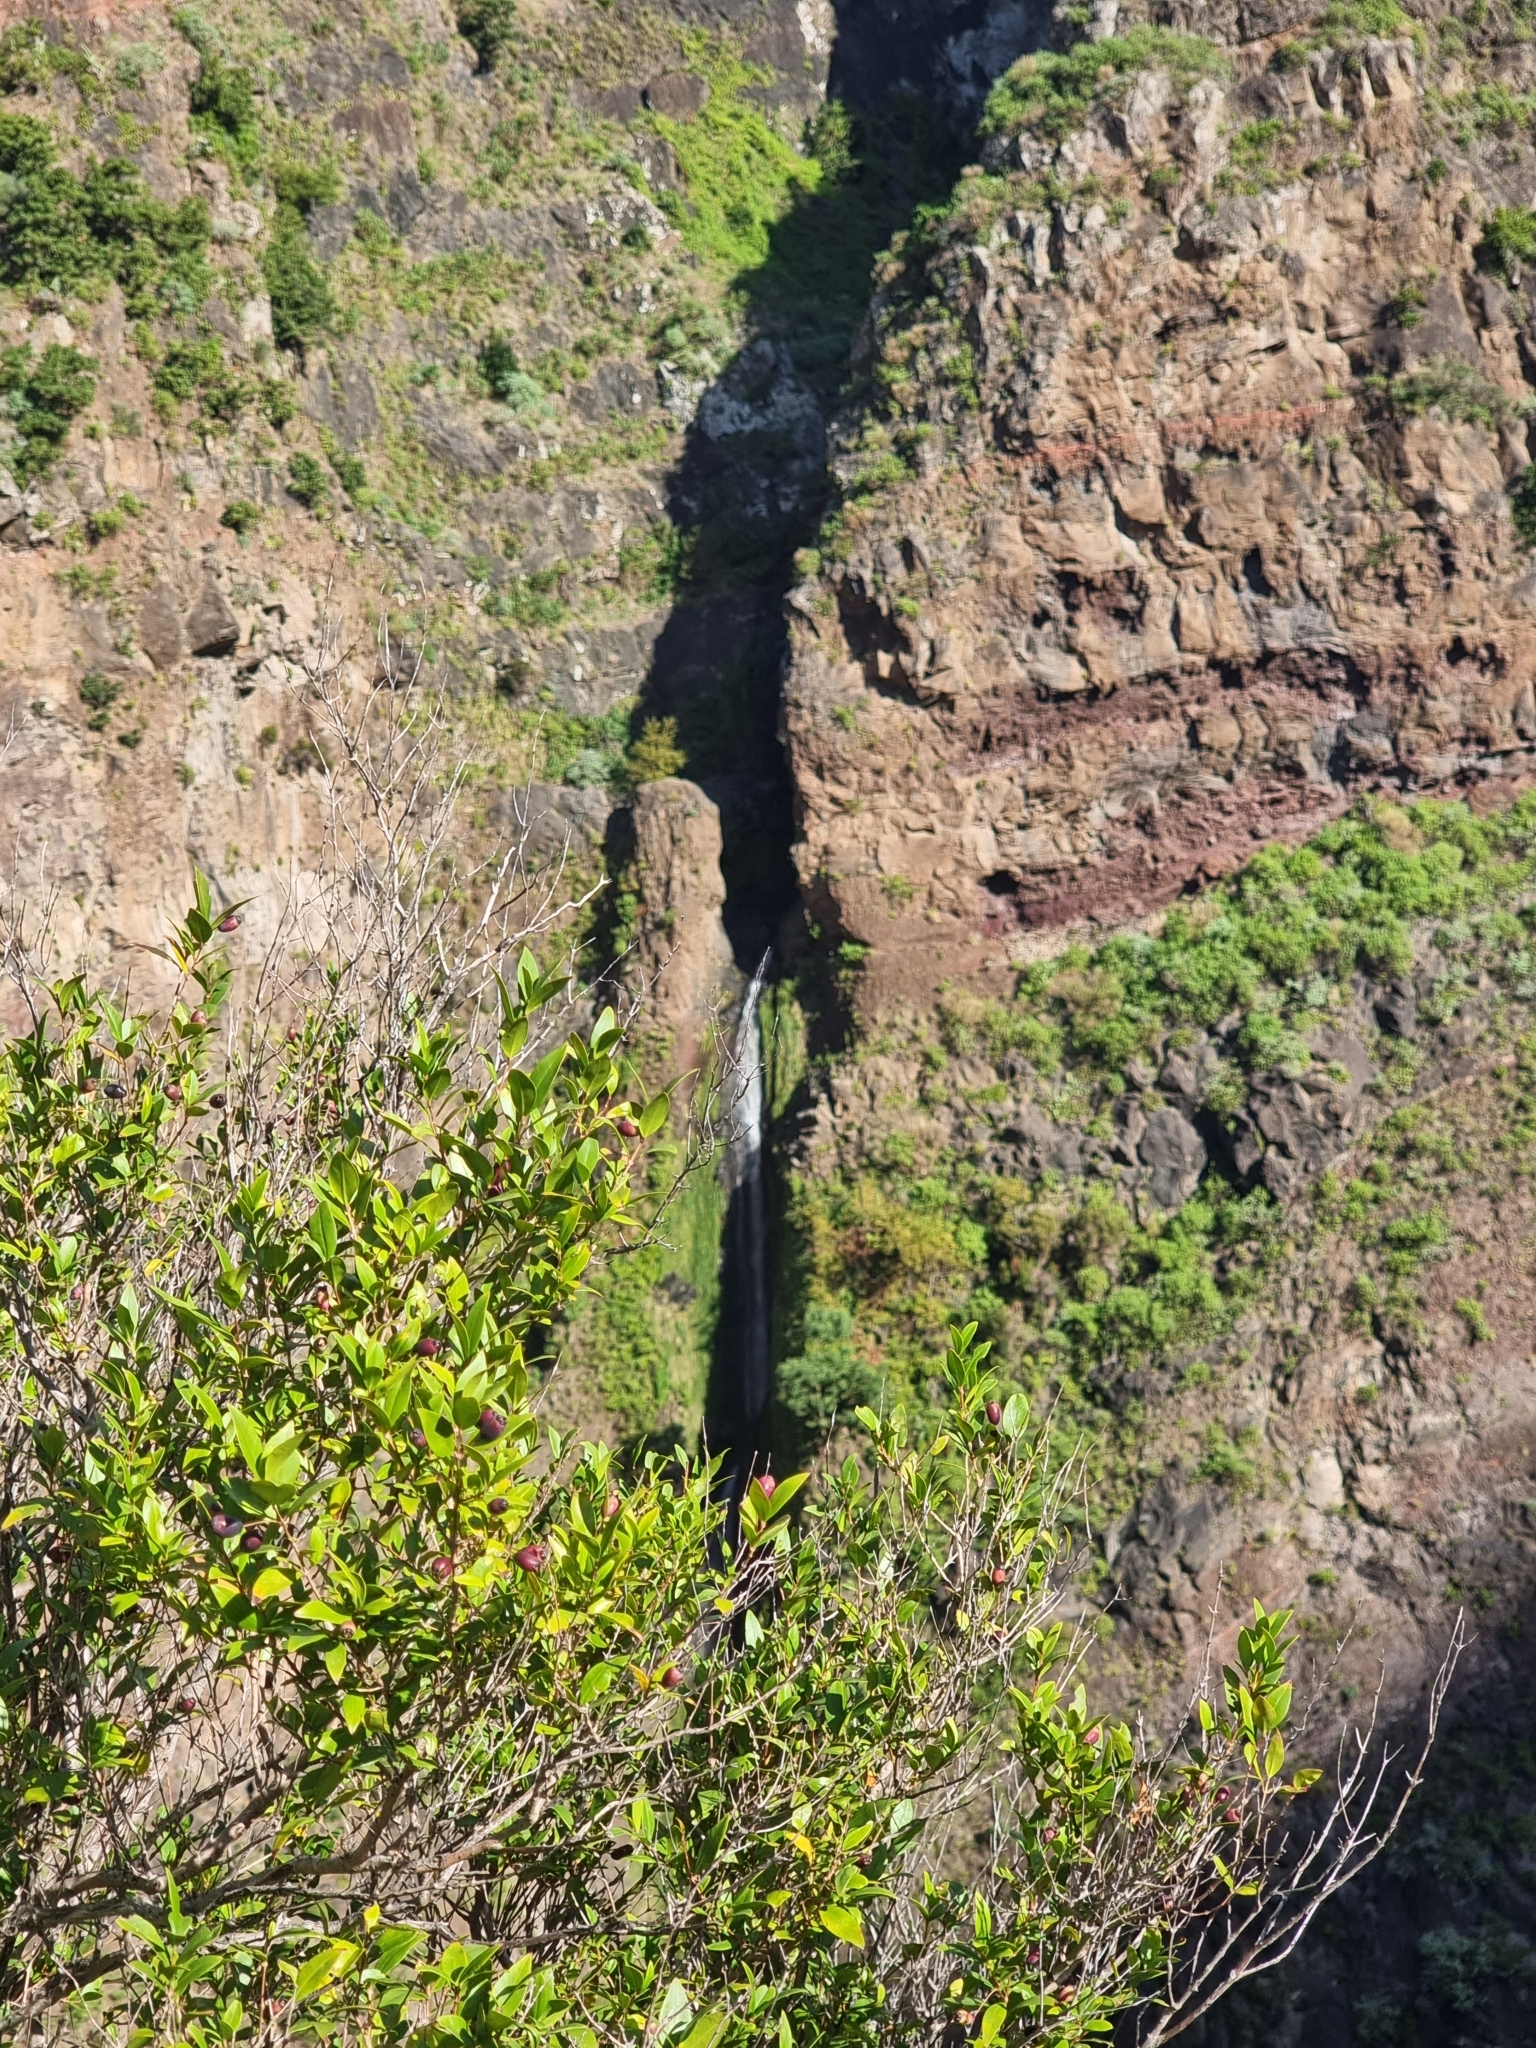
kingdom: Plantae
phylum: Tracheophyta
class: Magnoliopsida
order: Myrtales
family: Myrtaceae
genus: Myrtus
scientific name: Myrtus communis
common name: Myrtle
